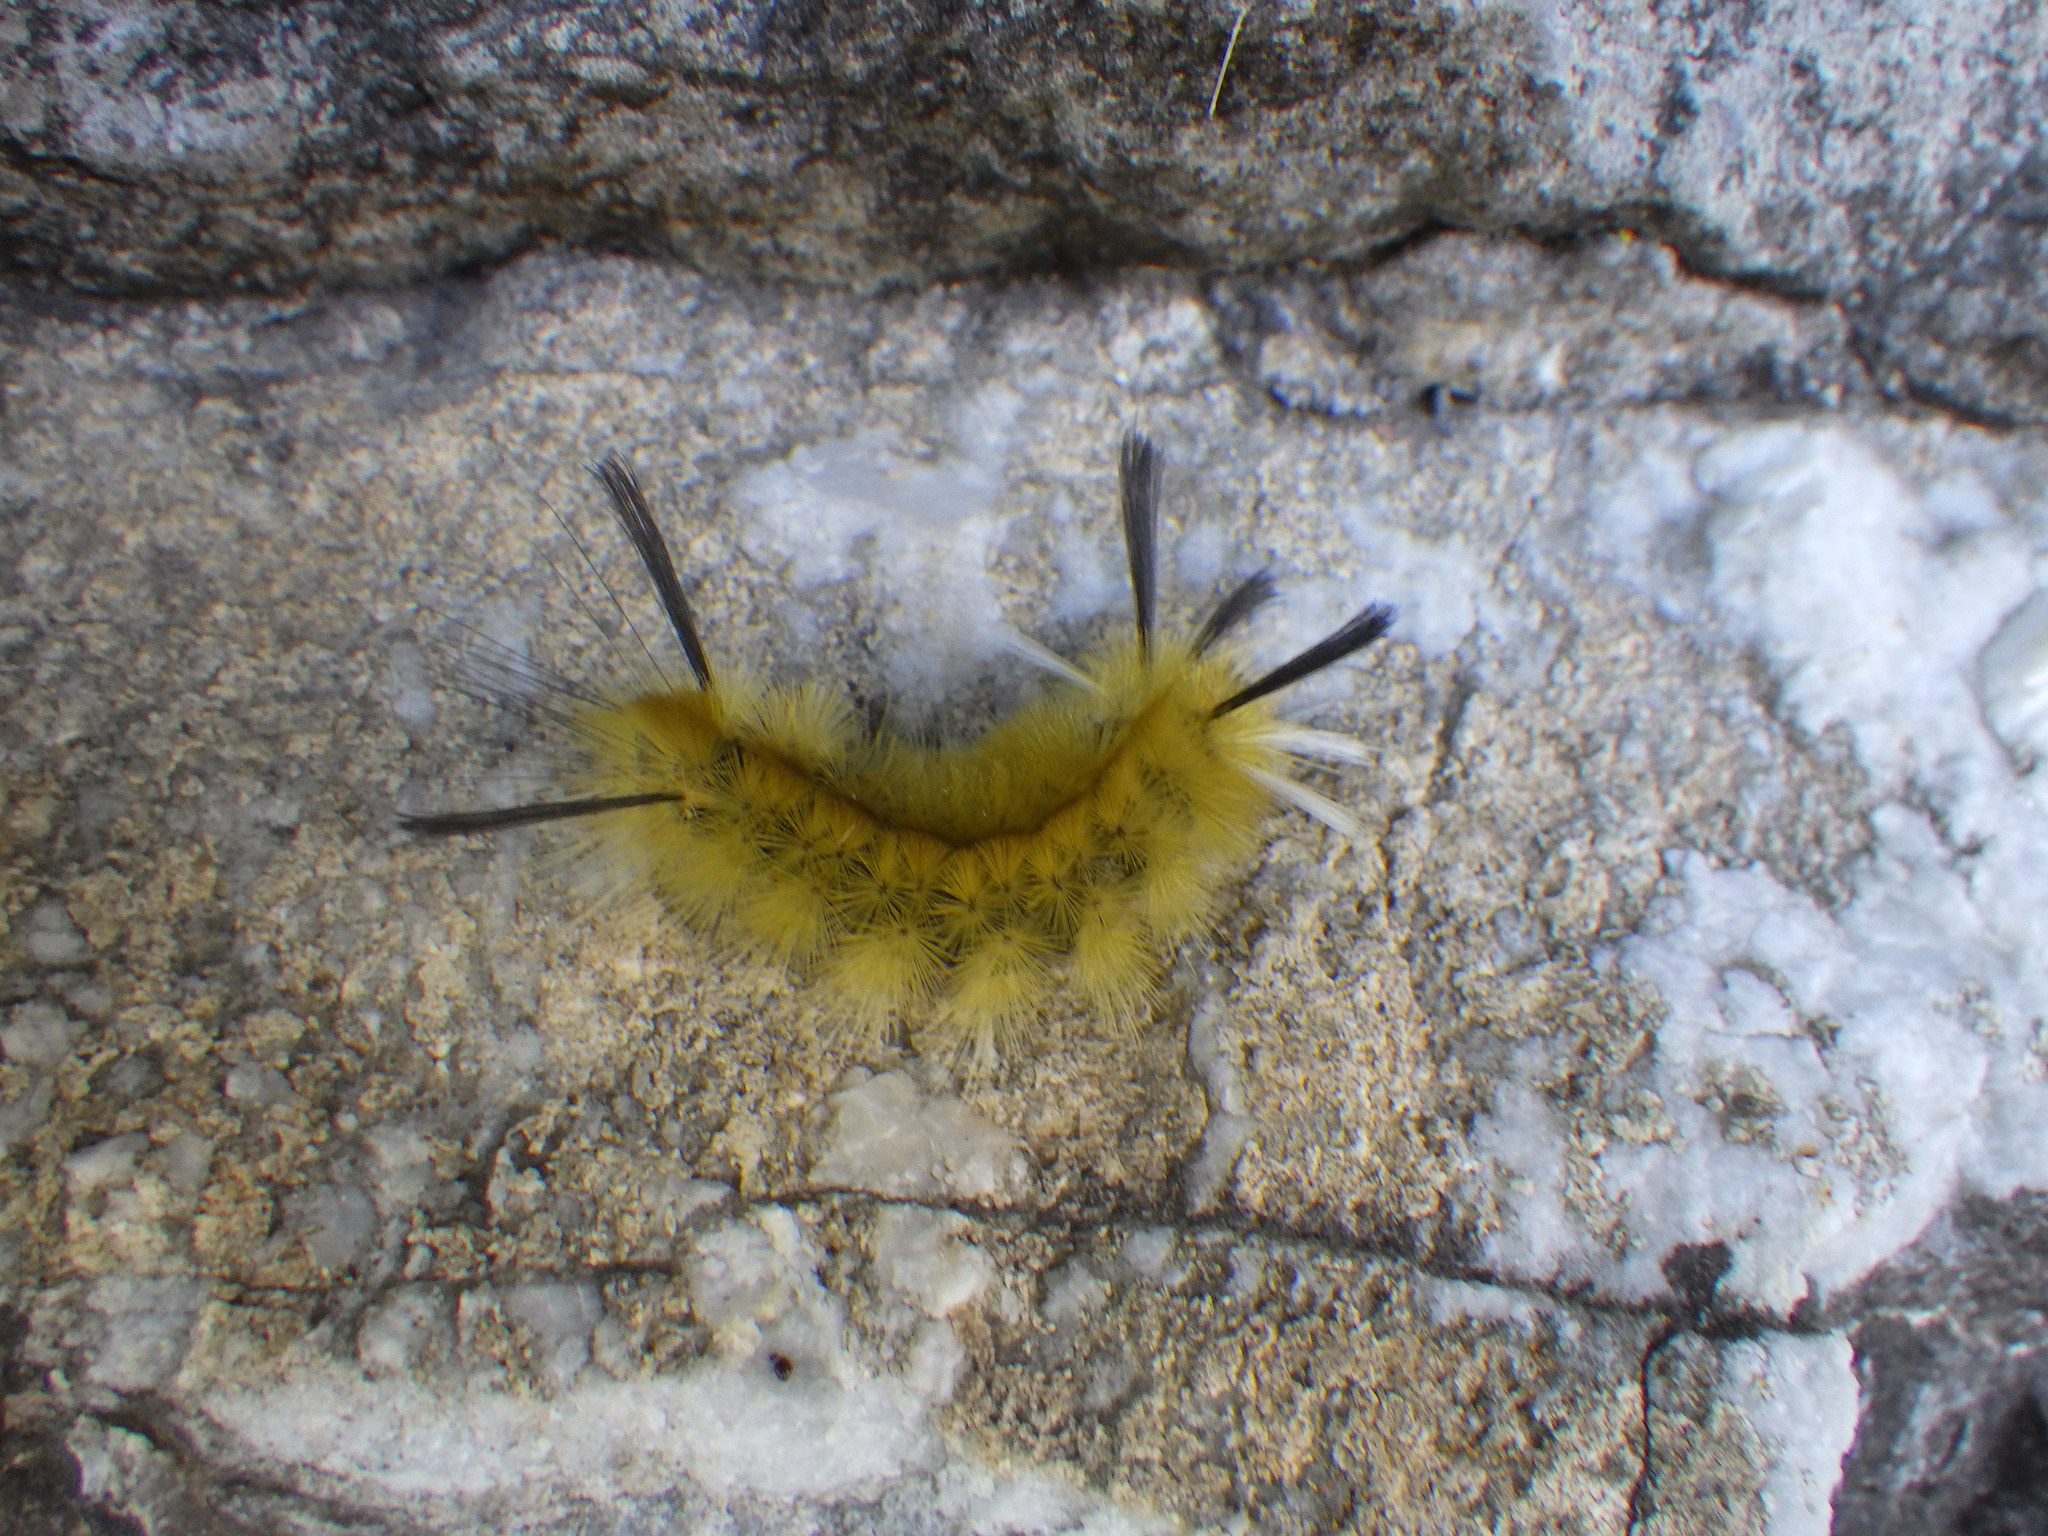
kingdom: Animalia
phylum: Arthropoda
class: Insecta
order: Lepidoptera
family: Erebidae
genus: Halysidota
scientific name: Halysidota tessellaris
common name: Banded tussock moth
